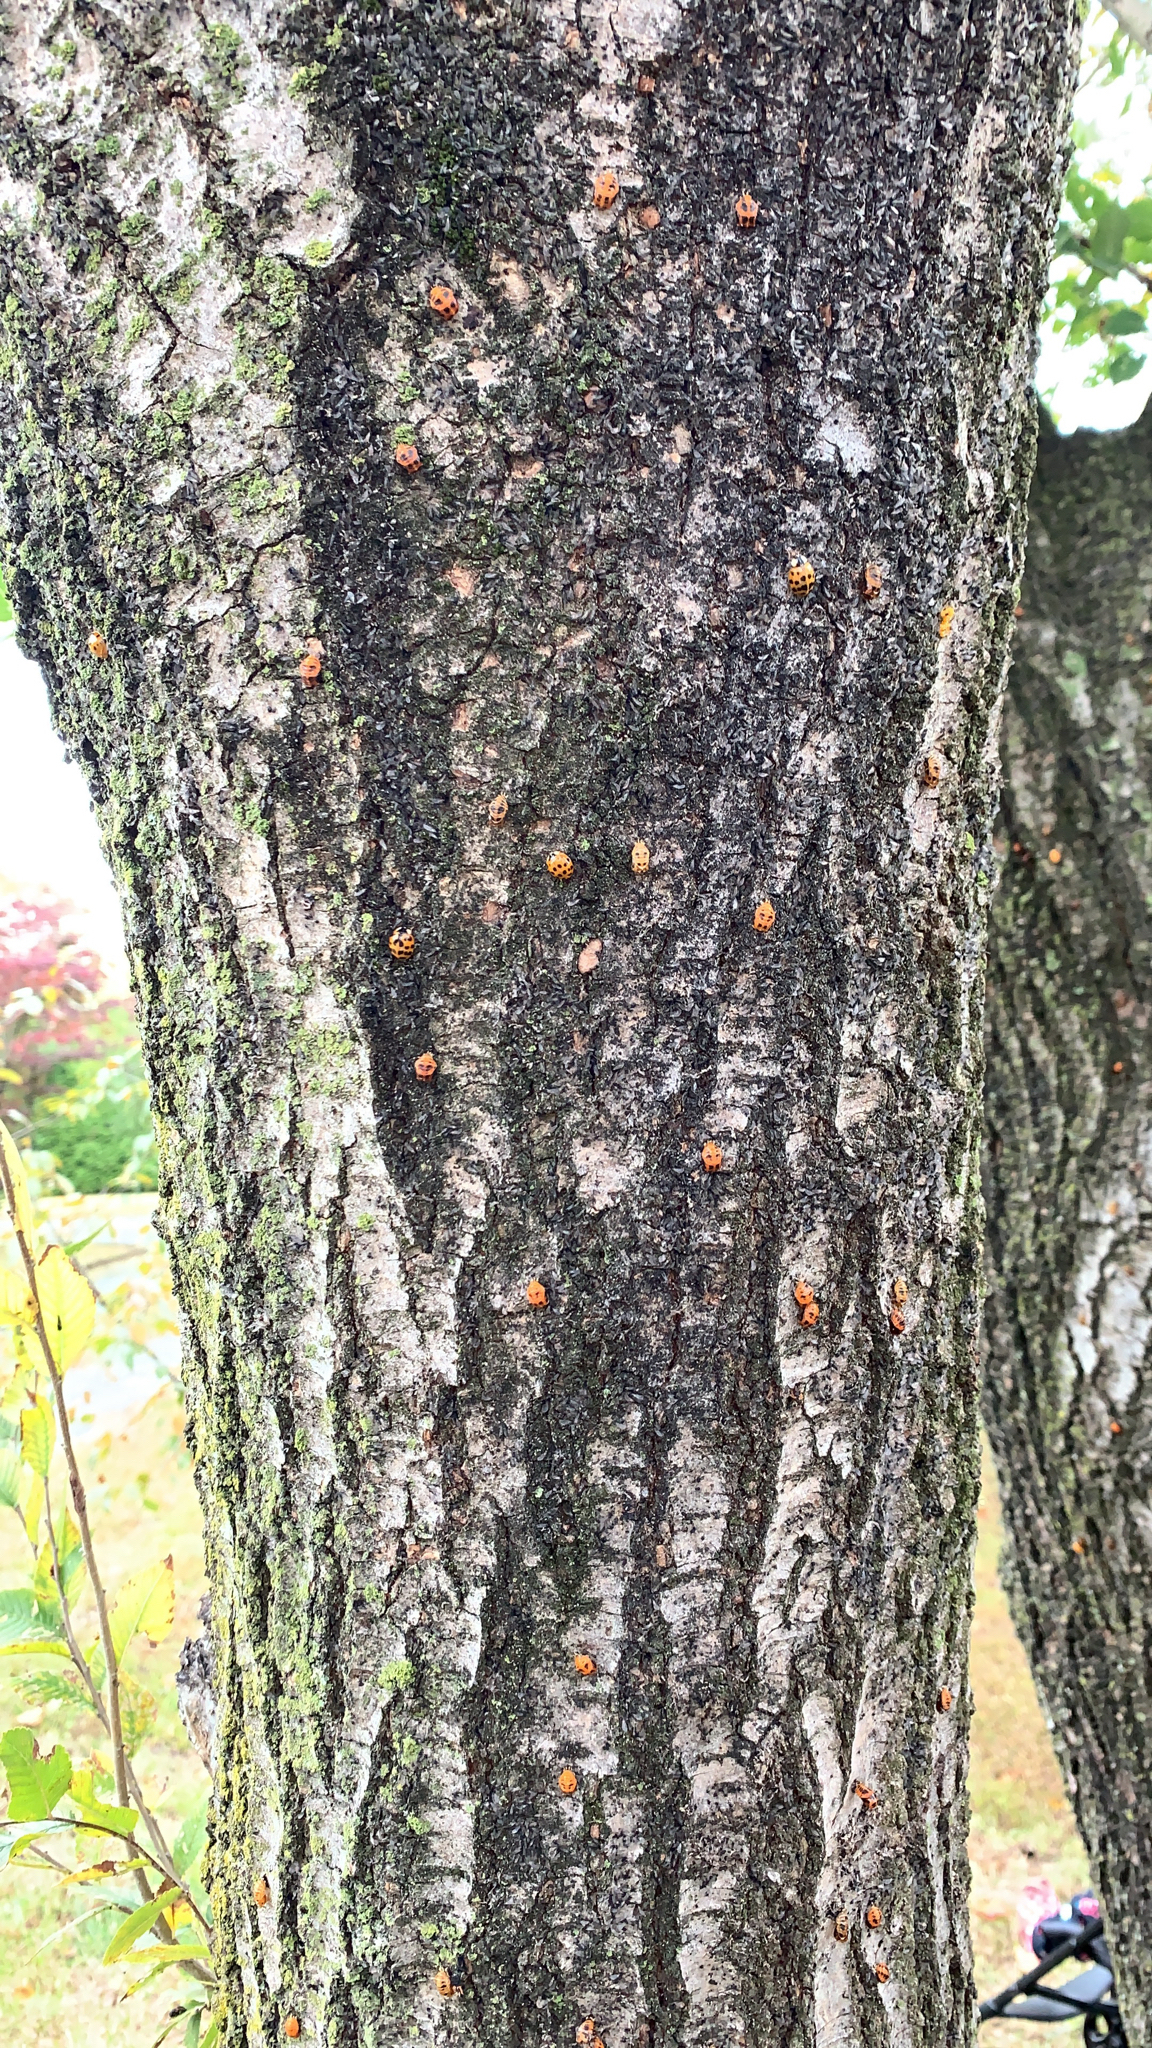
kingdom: Animalia
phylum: Arthropoda
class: Insecta
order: Coleoptera
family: Coccinellidae
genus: Harmonia
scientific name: Harmonia axyridis
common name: Harlequin ladybird
